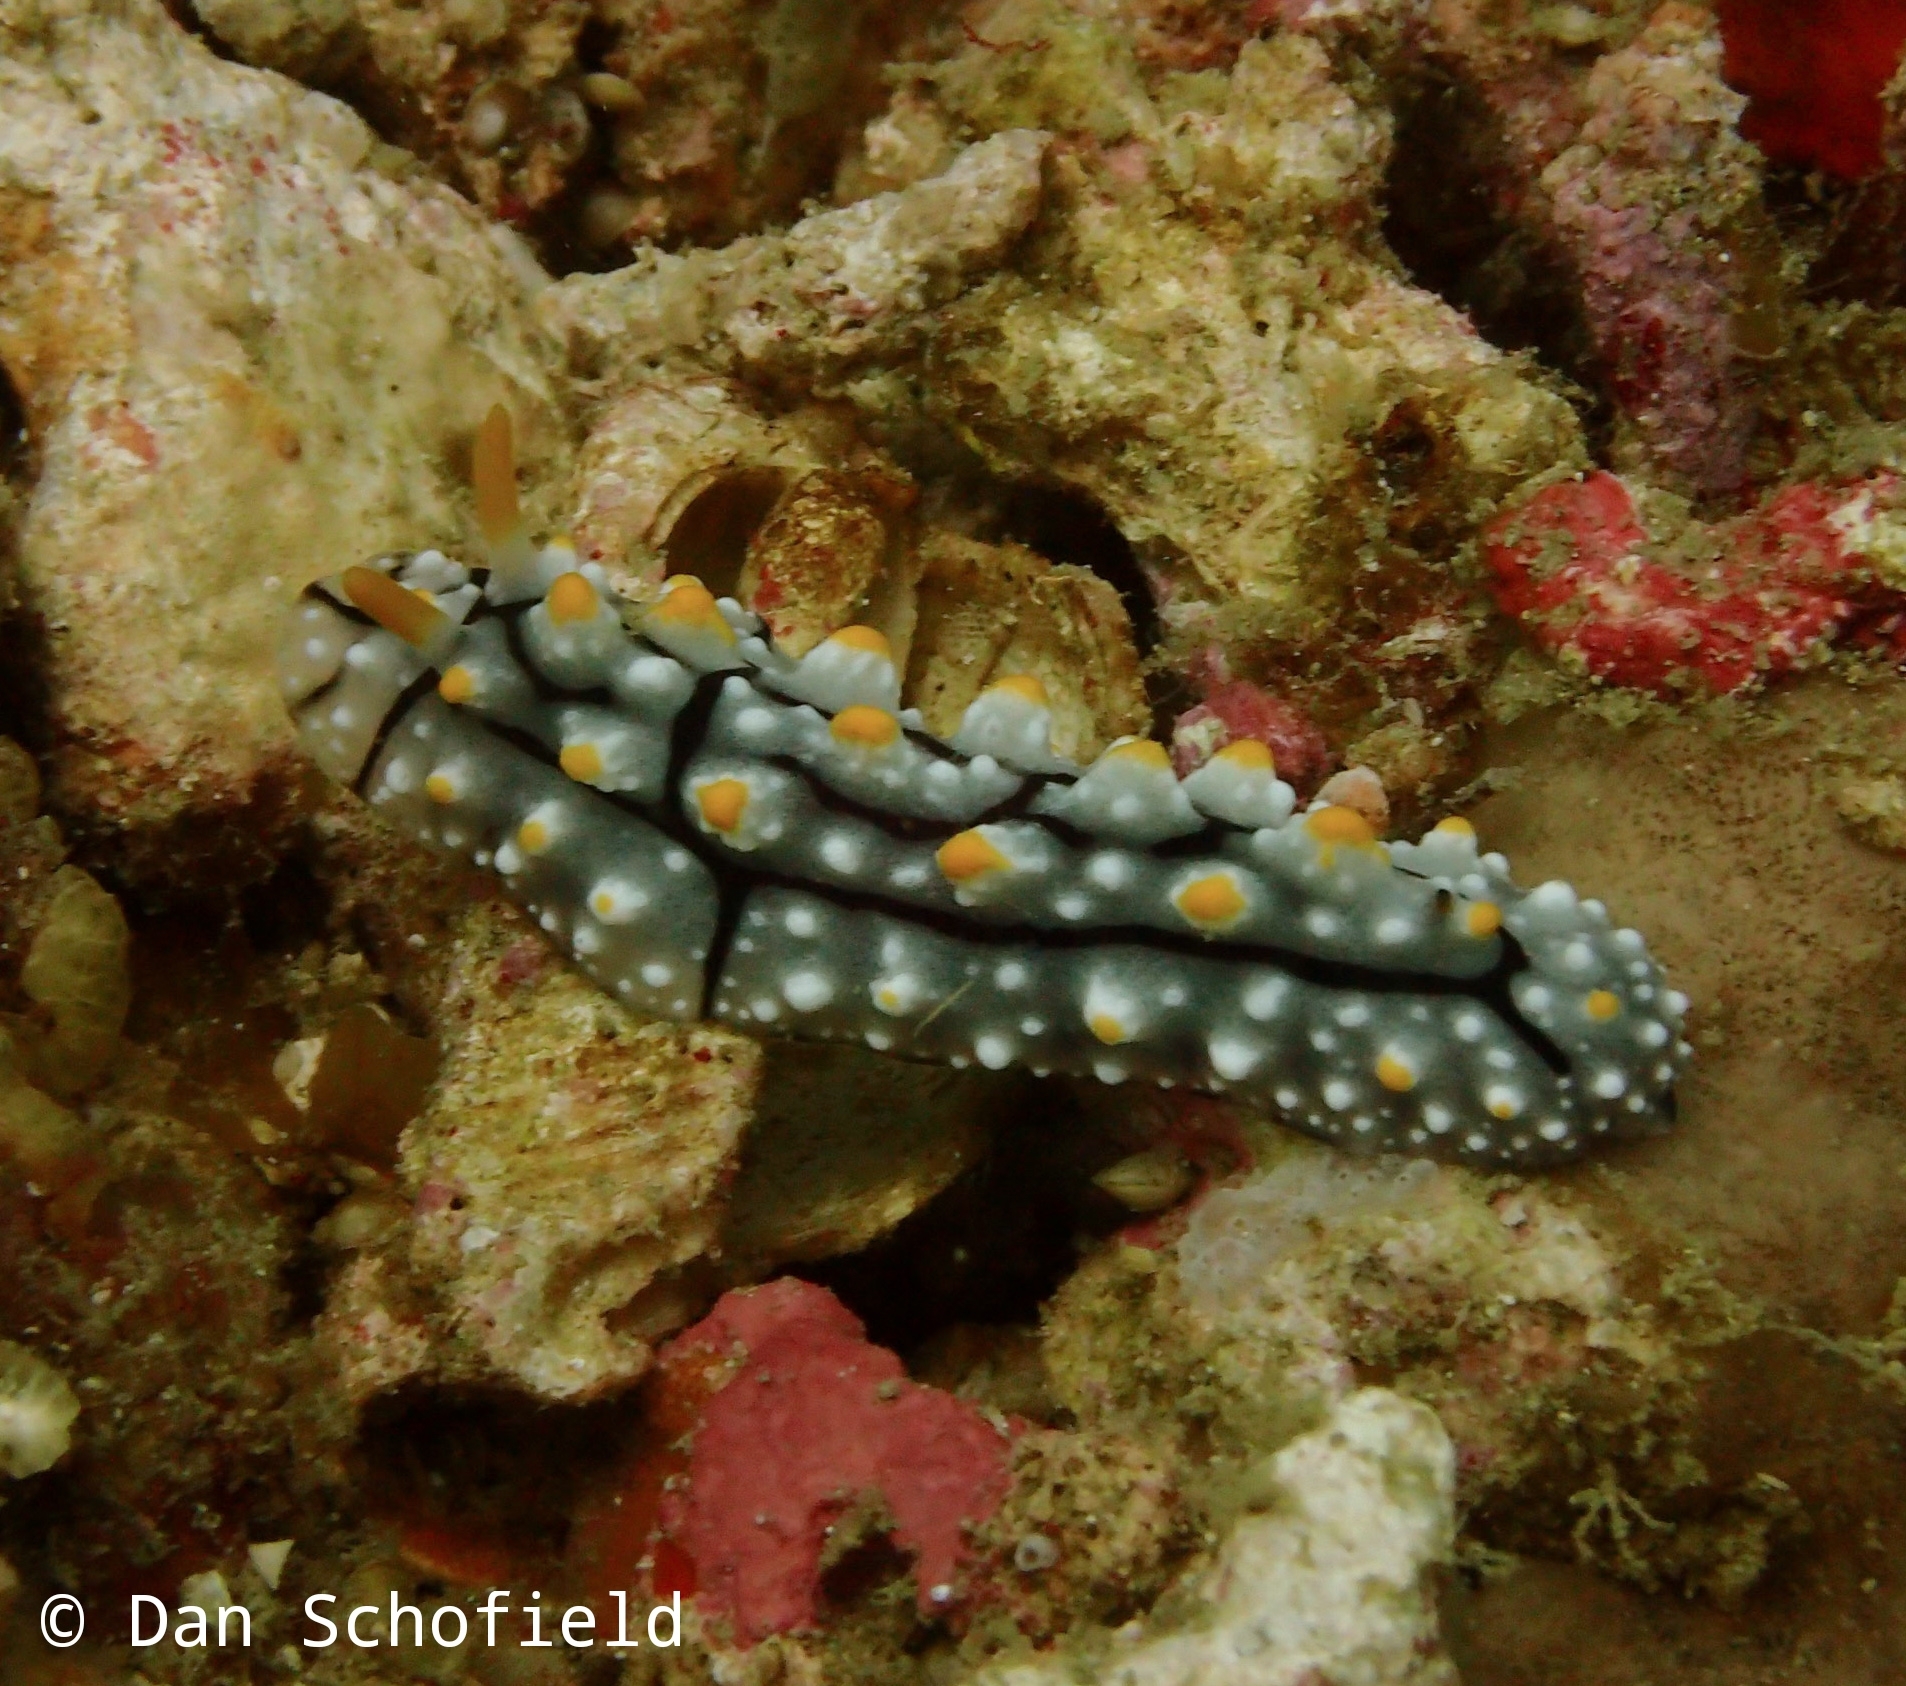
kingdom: Animalia
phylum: Mollusca
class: Gastropoda
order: Nudibranchia
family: Phyllidiidae
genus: Phyllidia
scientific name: Phyllidia elegans
